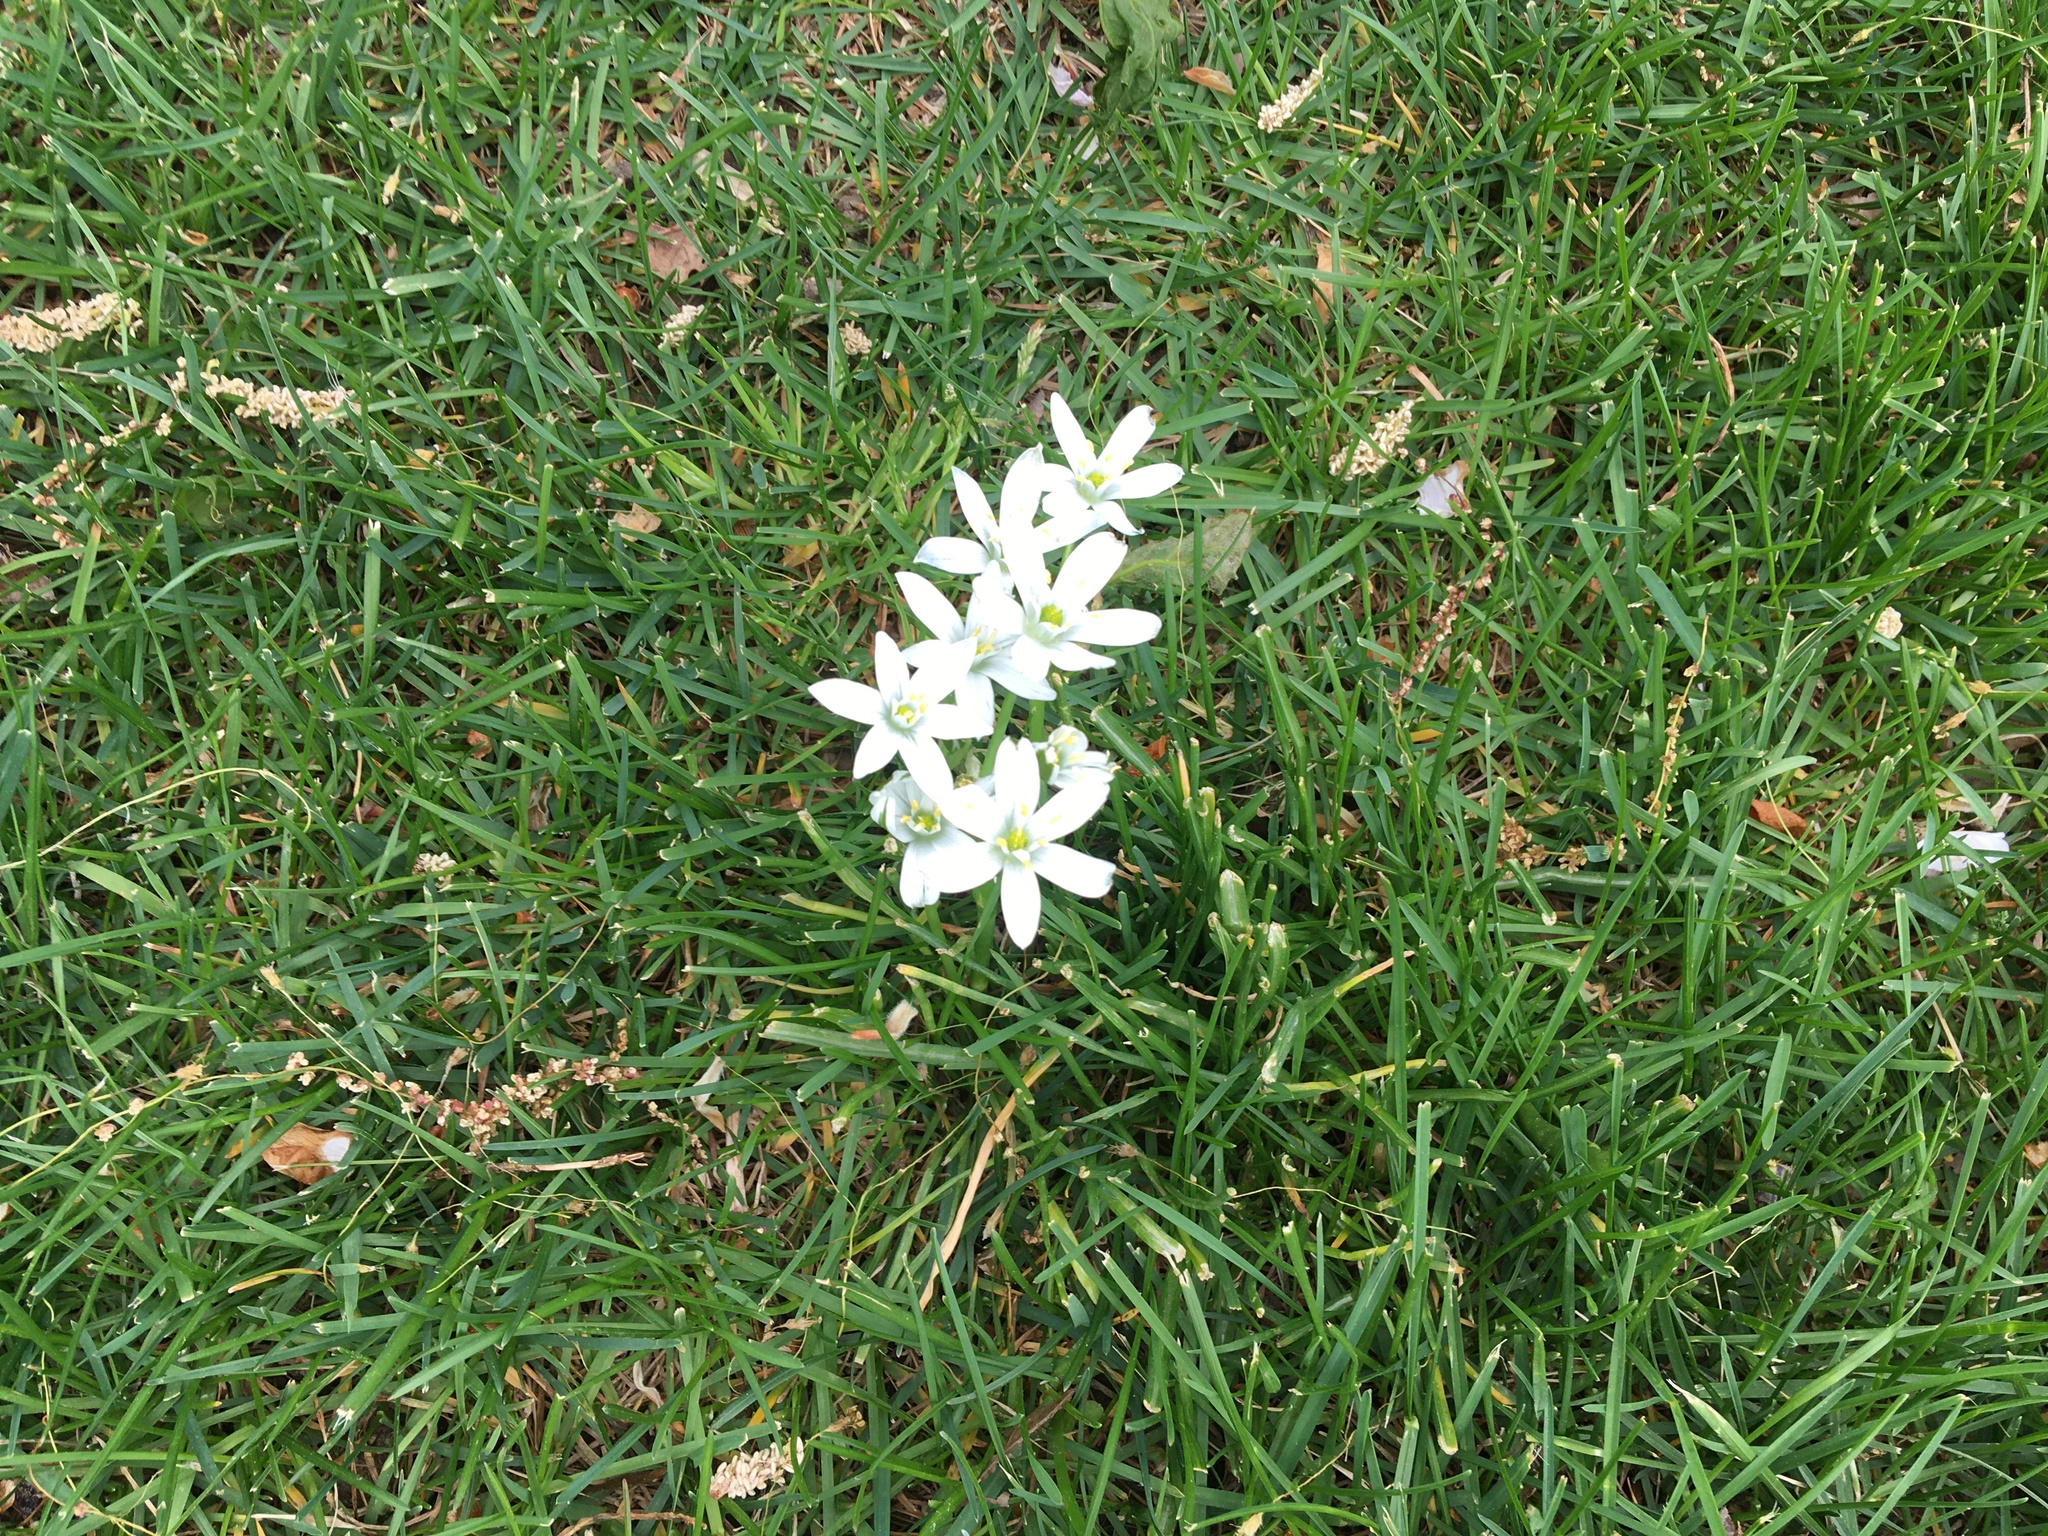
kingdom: Plantae
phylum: Tracheophyta
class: Liliopsida
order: Asparagales
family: Asparagaceae
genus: Ornithogalum
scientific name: Ornithogalum umbellatum
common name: Garden star-of-bethlehem
